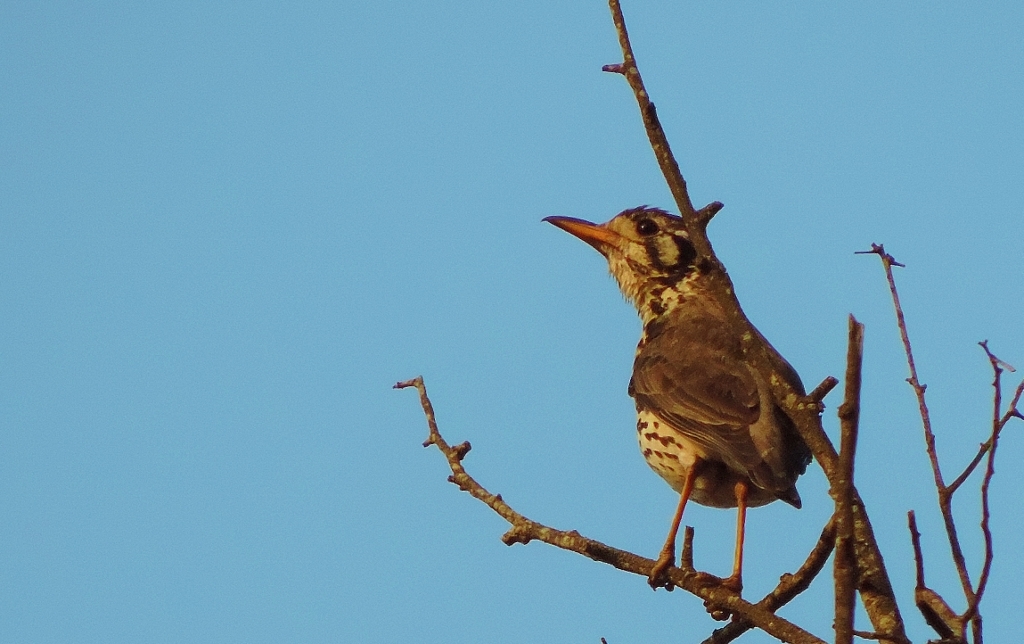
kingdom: Animalia
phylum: Chordata
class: Aves
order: Passeriformes
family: Turdidae
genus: Psophocichla
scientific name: Psophocichla litsitsirupa
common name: Groundscraper thrush
